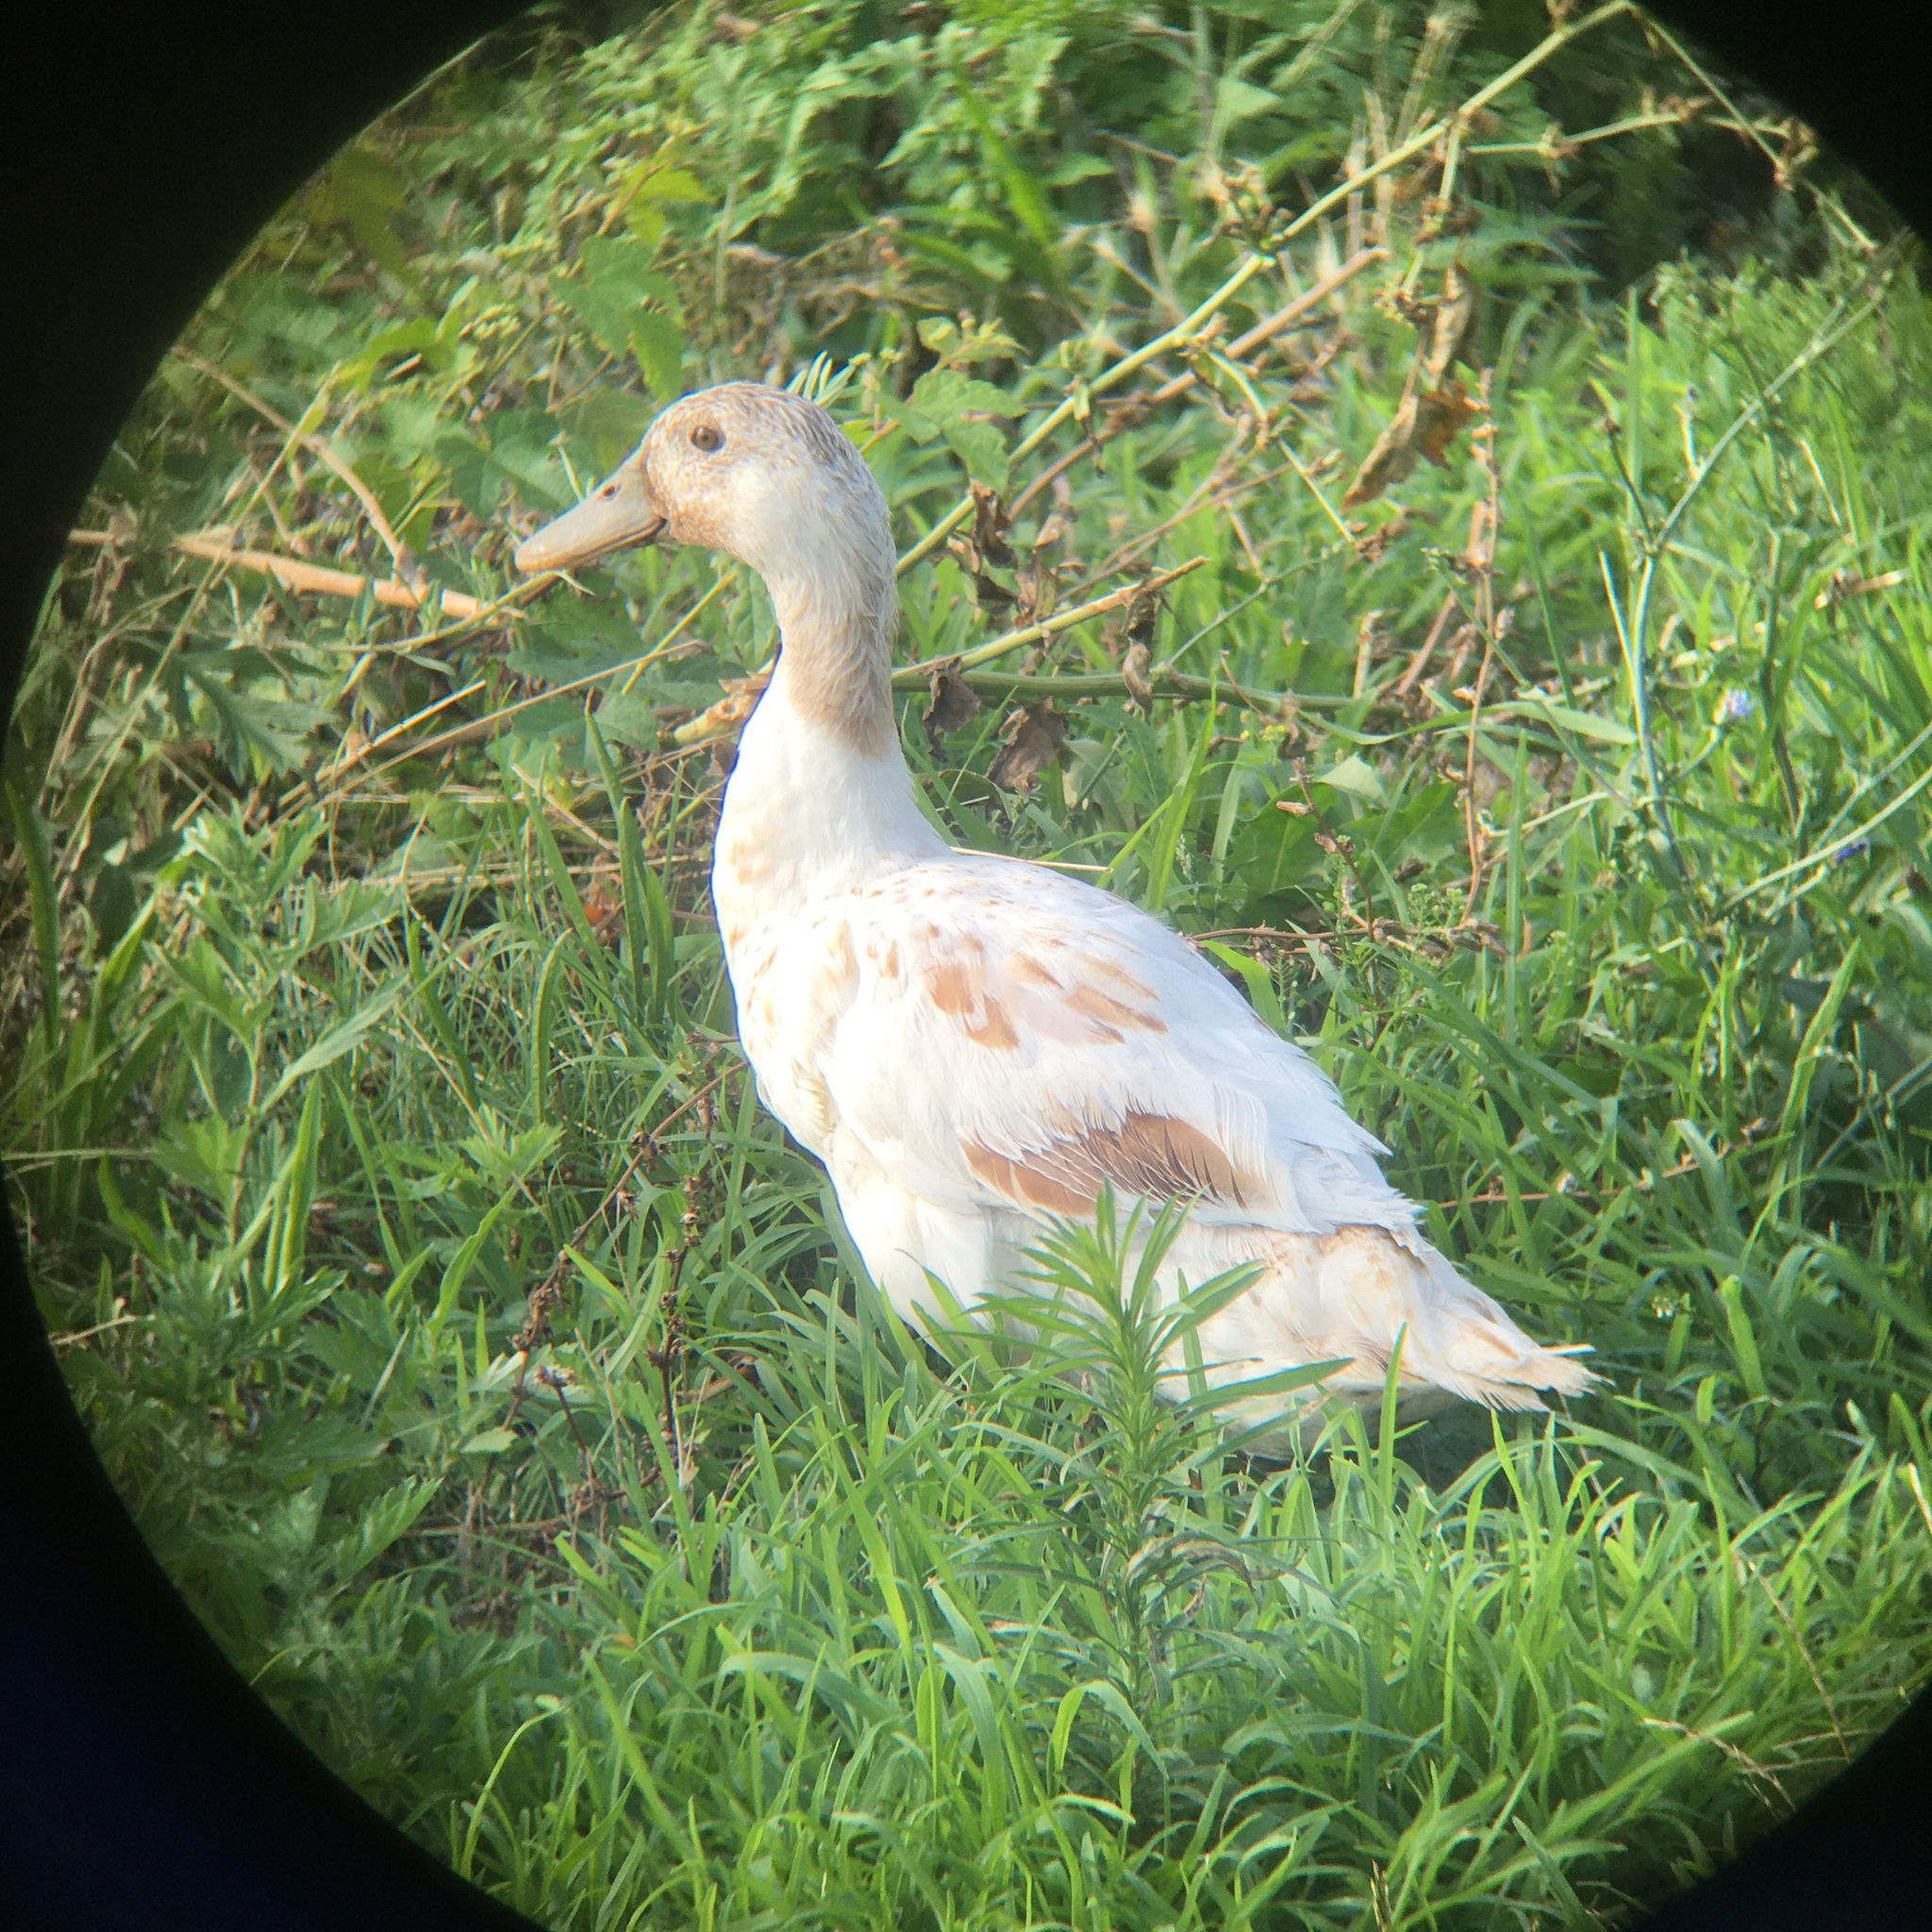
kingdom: Animalia
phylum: Chordata
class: Aves
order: Anseriformes
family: Anatidae
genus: Anas
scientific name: Anas platyrhynchos
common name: Mallard
